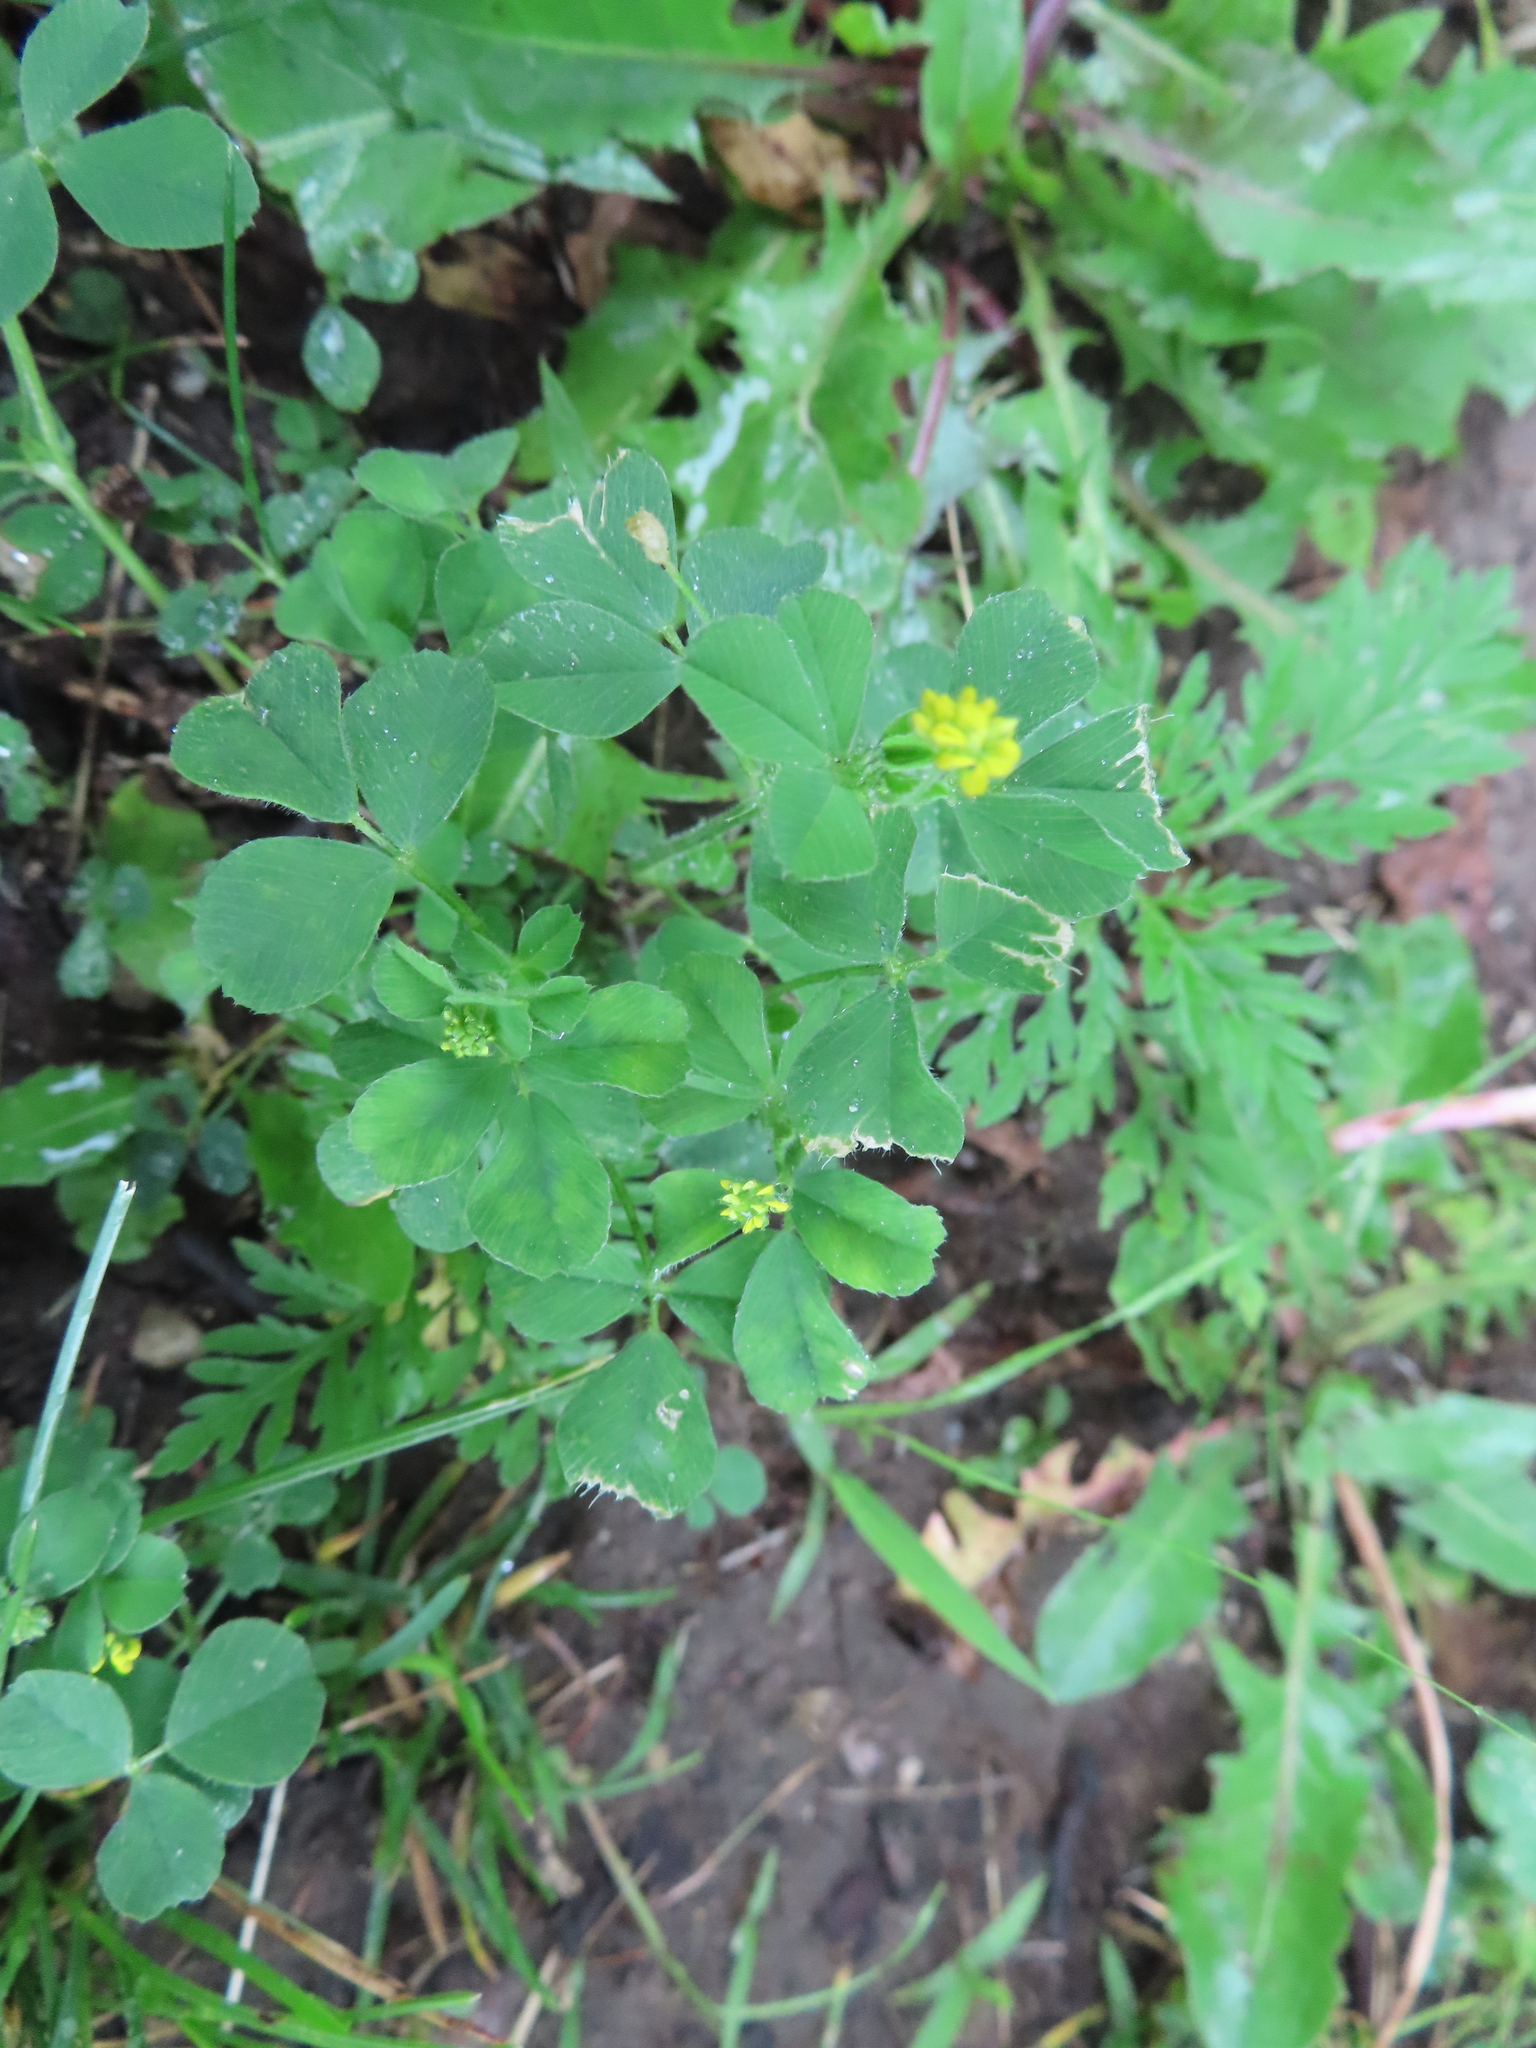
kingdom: Plantae
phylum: Tracheophyta
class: Magnoliopsida
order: Fabales
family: Fabaceae
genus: Medicago
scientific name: Medicago lupulina
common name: Black medick
